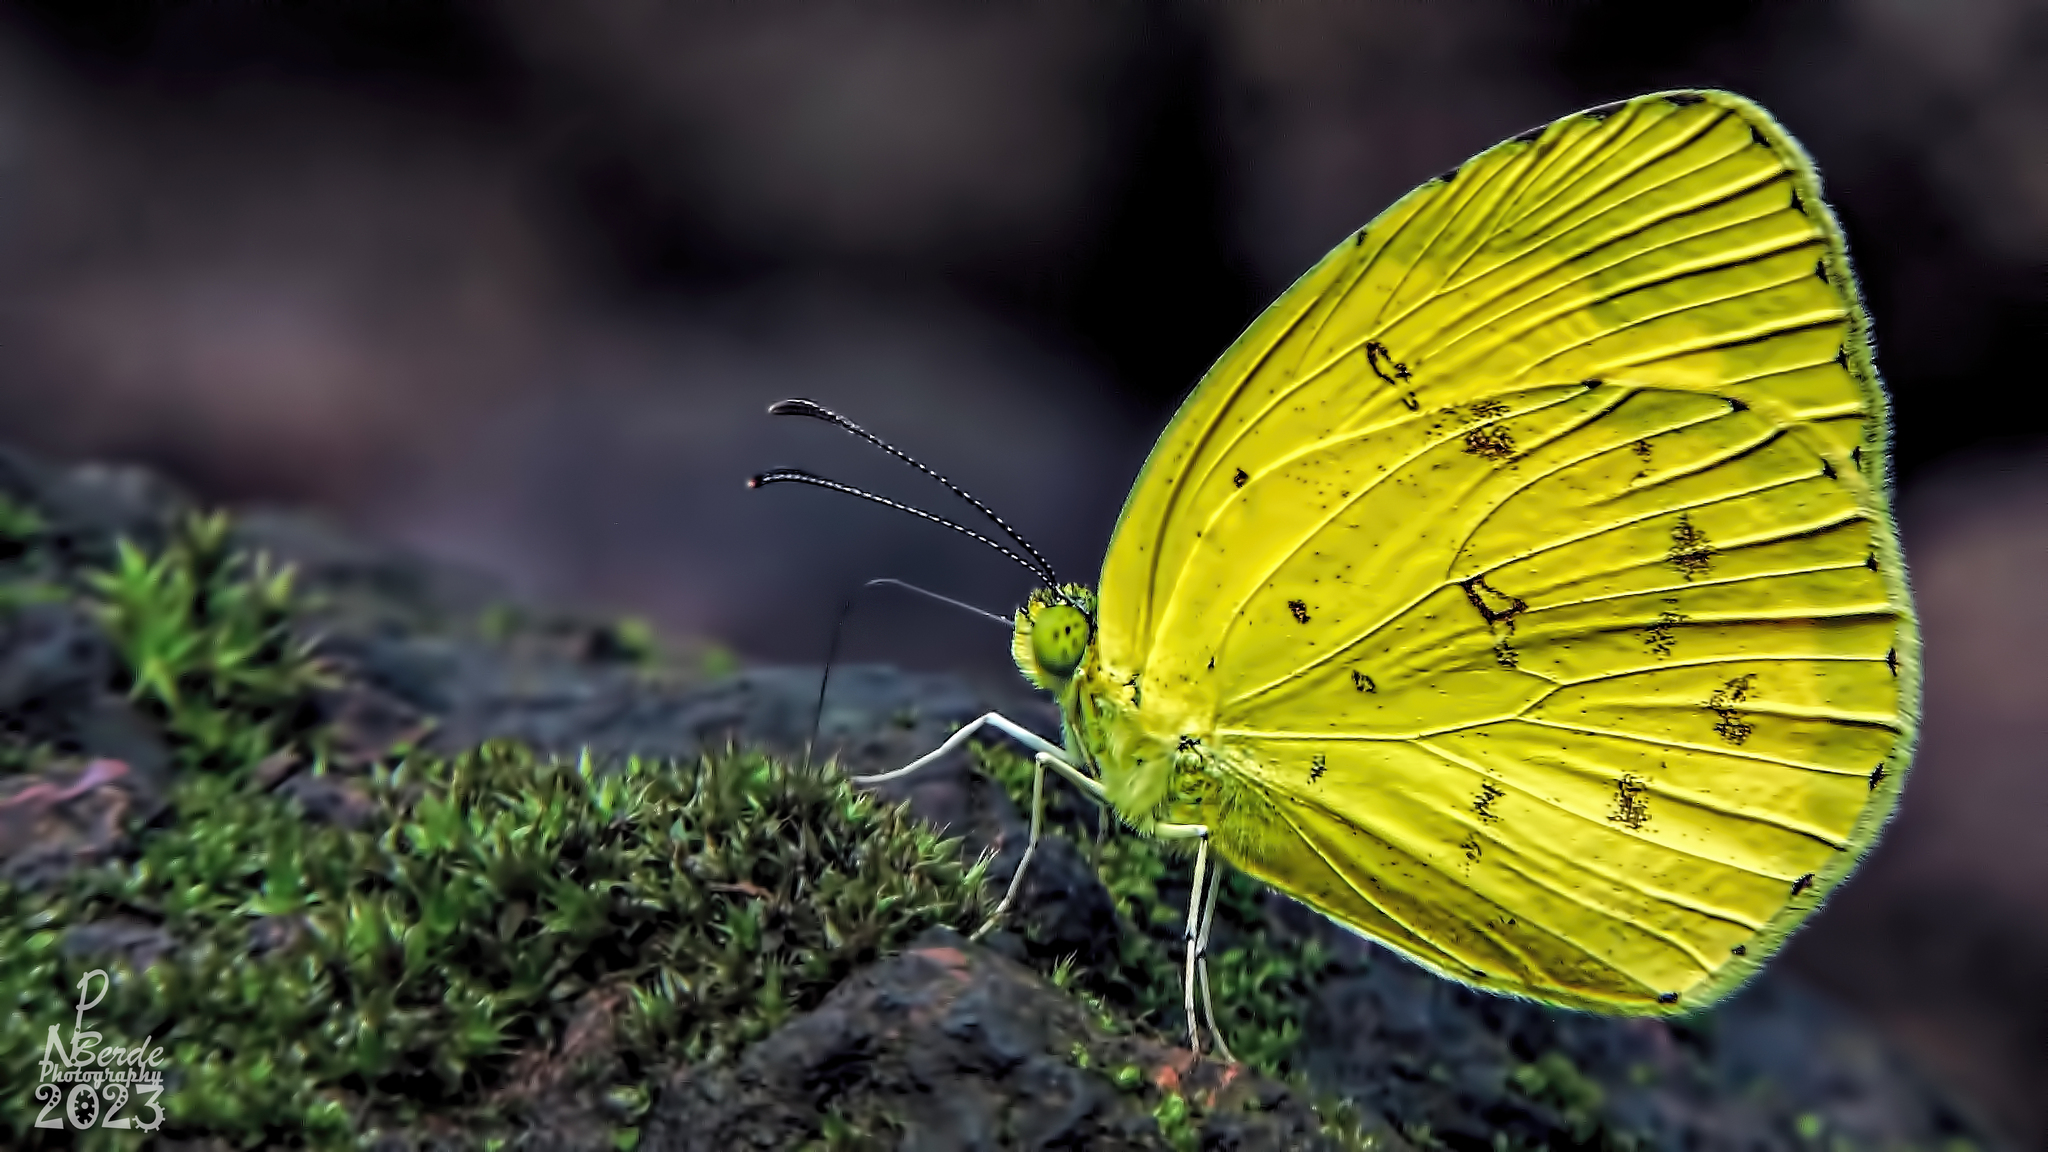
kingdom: Animalia
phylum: Arthropoda
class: Insecta
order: Lepidoptera
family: Pieridae
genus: Eurema
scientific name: Eurema hecabe
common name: Pale grass yellow
